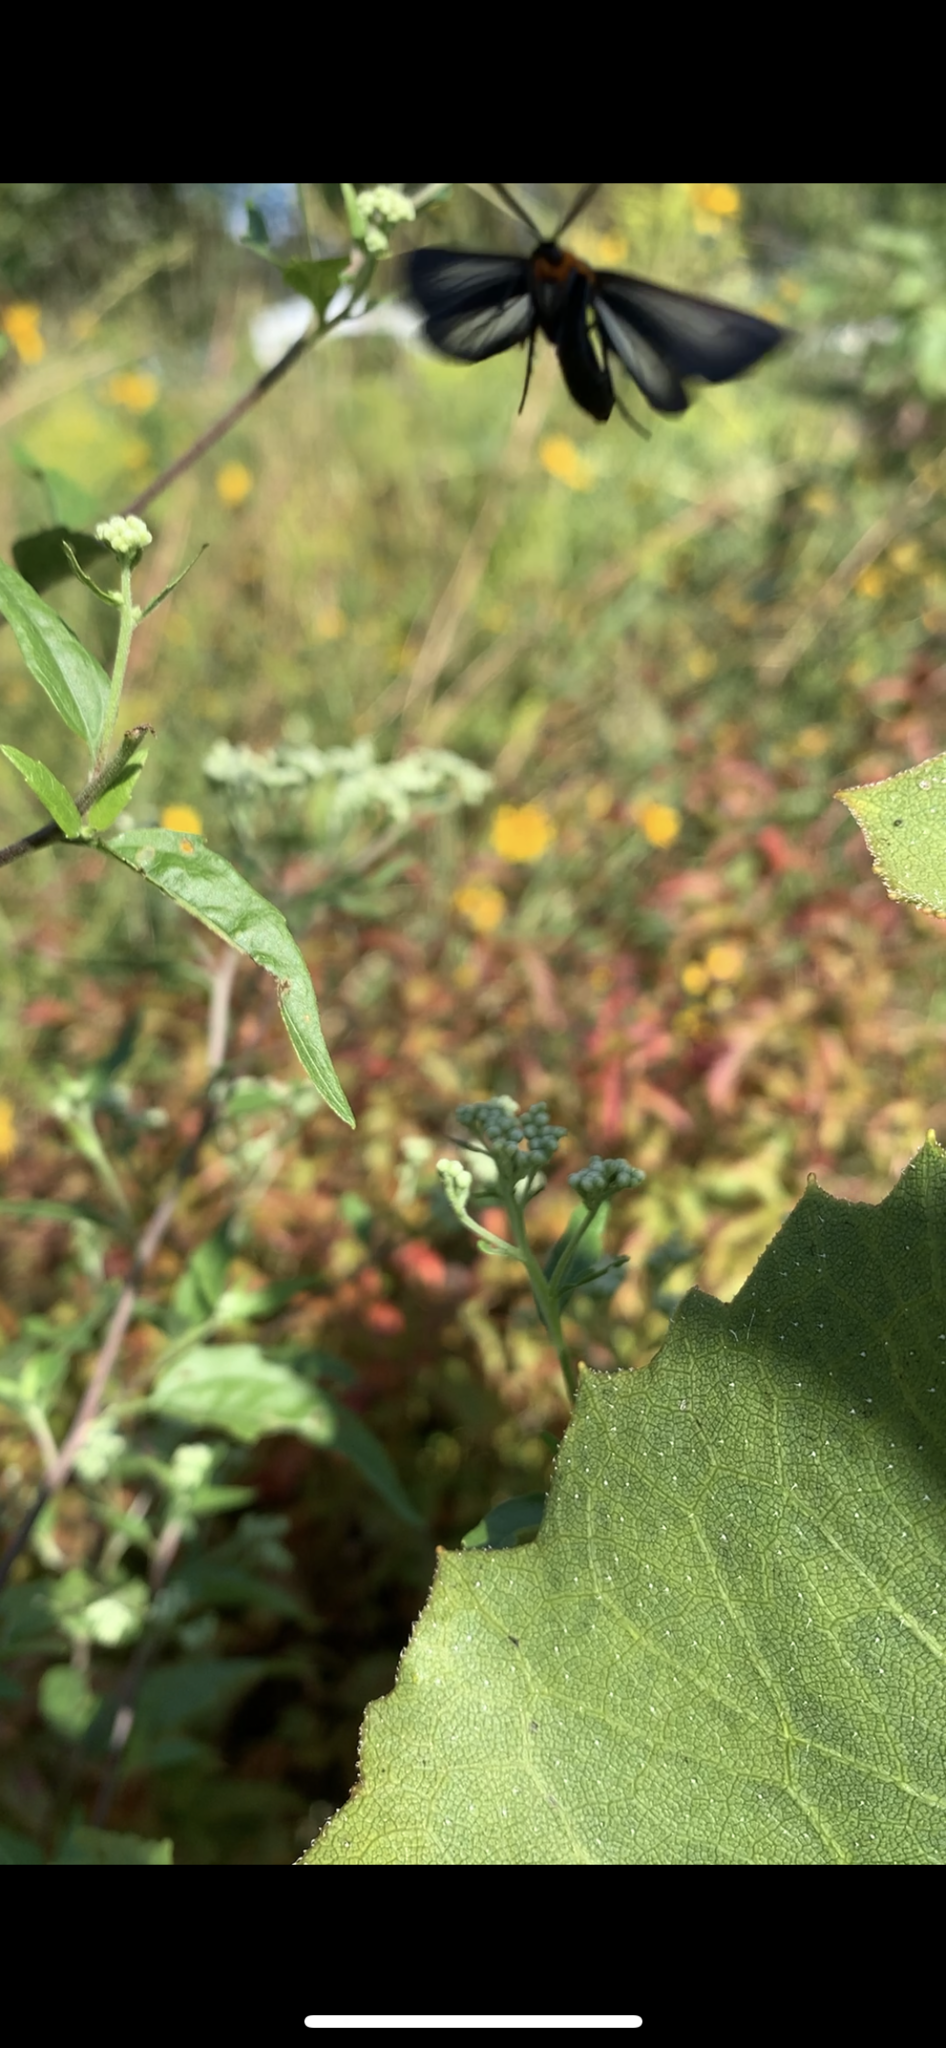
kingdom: Animalia
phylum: Arthropoda
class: Insecta
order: Lepidoptera
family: Erebidae
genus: Cisseps
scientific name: Cisseps fulvicollis
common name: Yellow-collared scape moth
